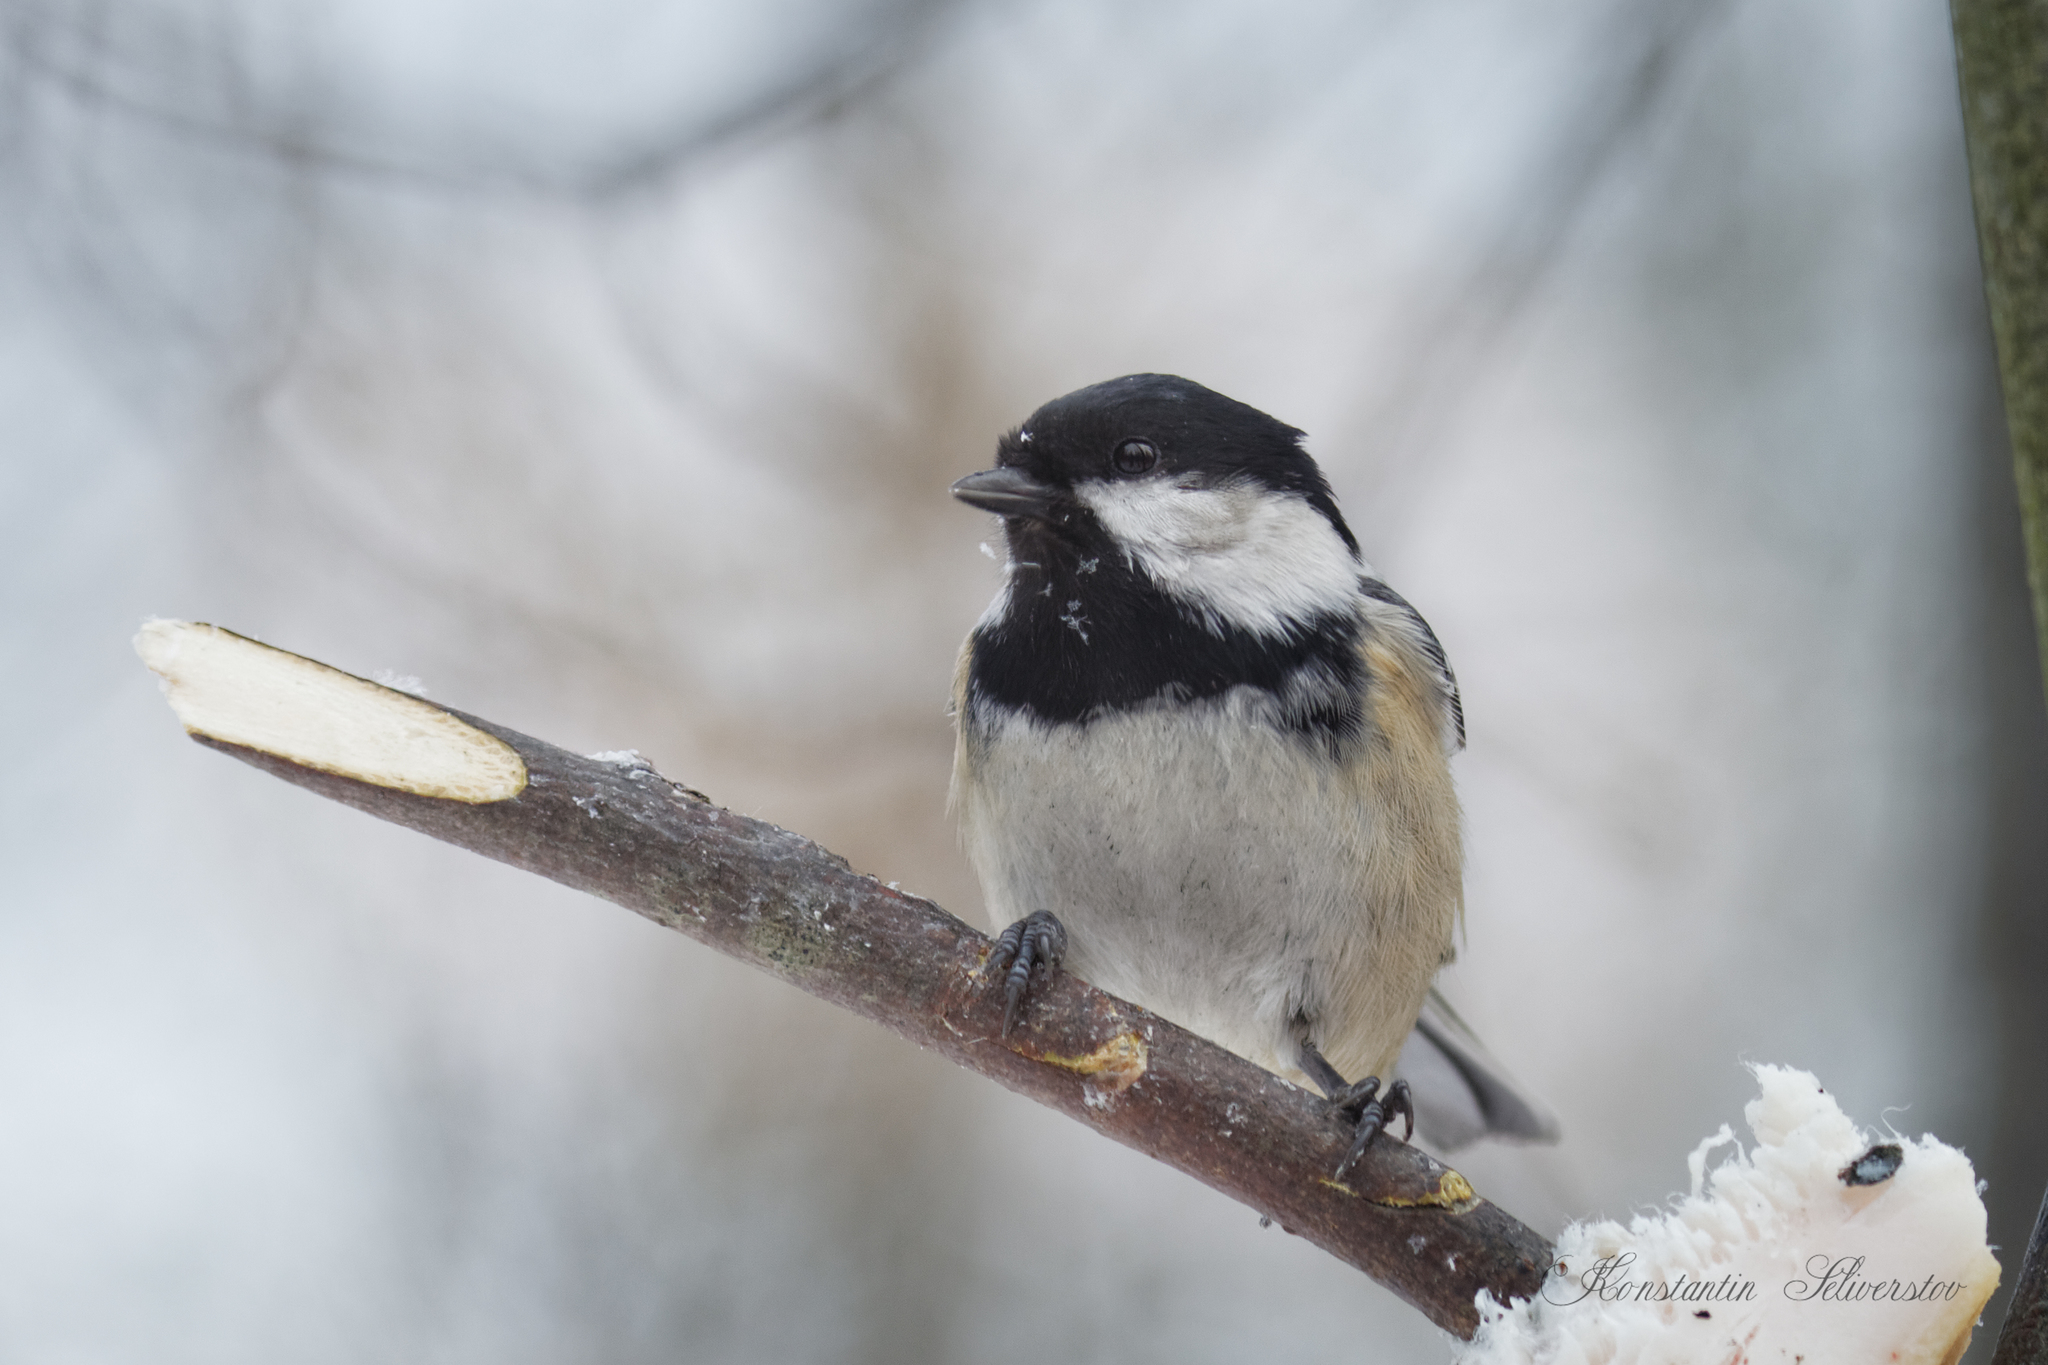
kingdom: Animalia
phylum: Chordata
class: Aves
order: Passeriformes
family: Paridae
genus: Periparus
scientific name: Periparus ater
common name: Coal tit
